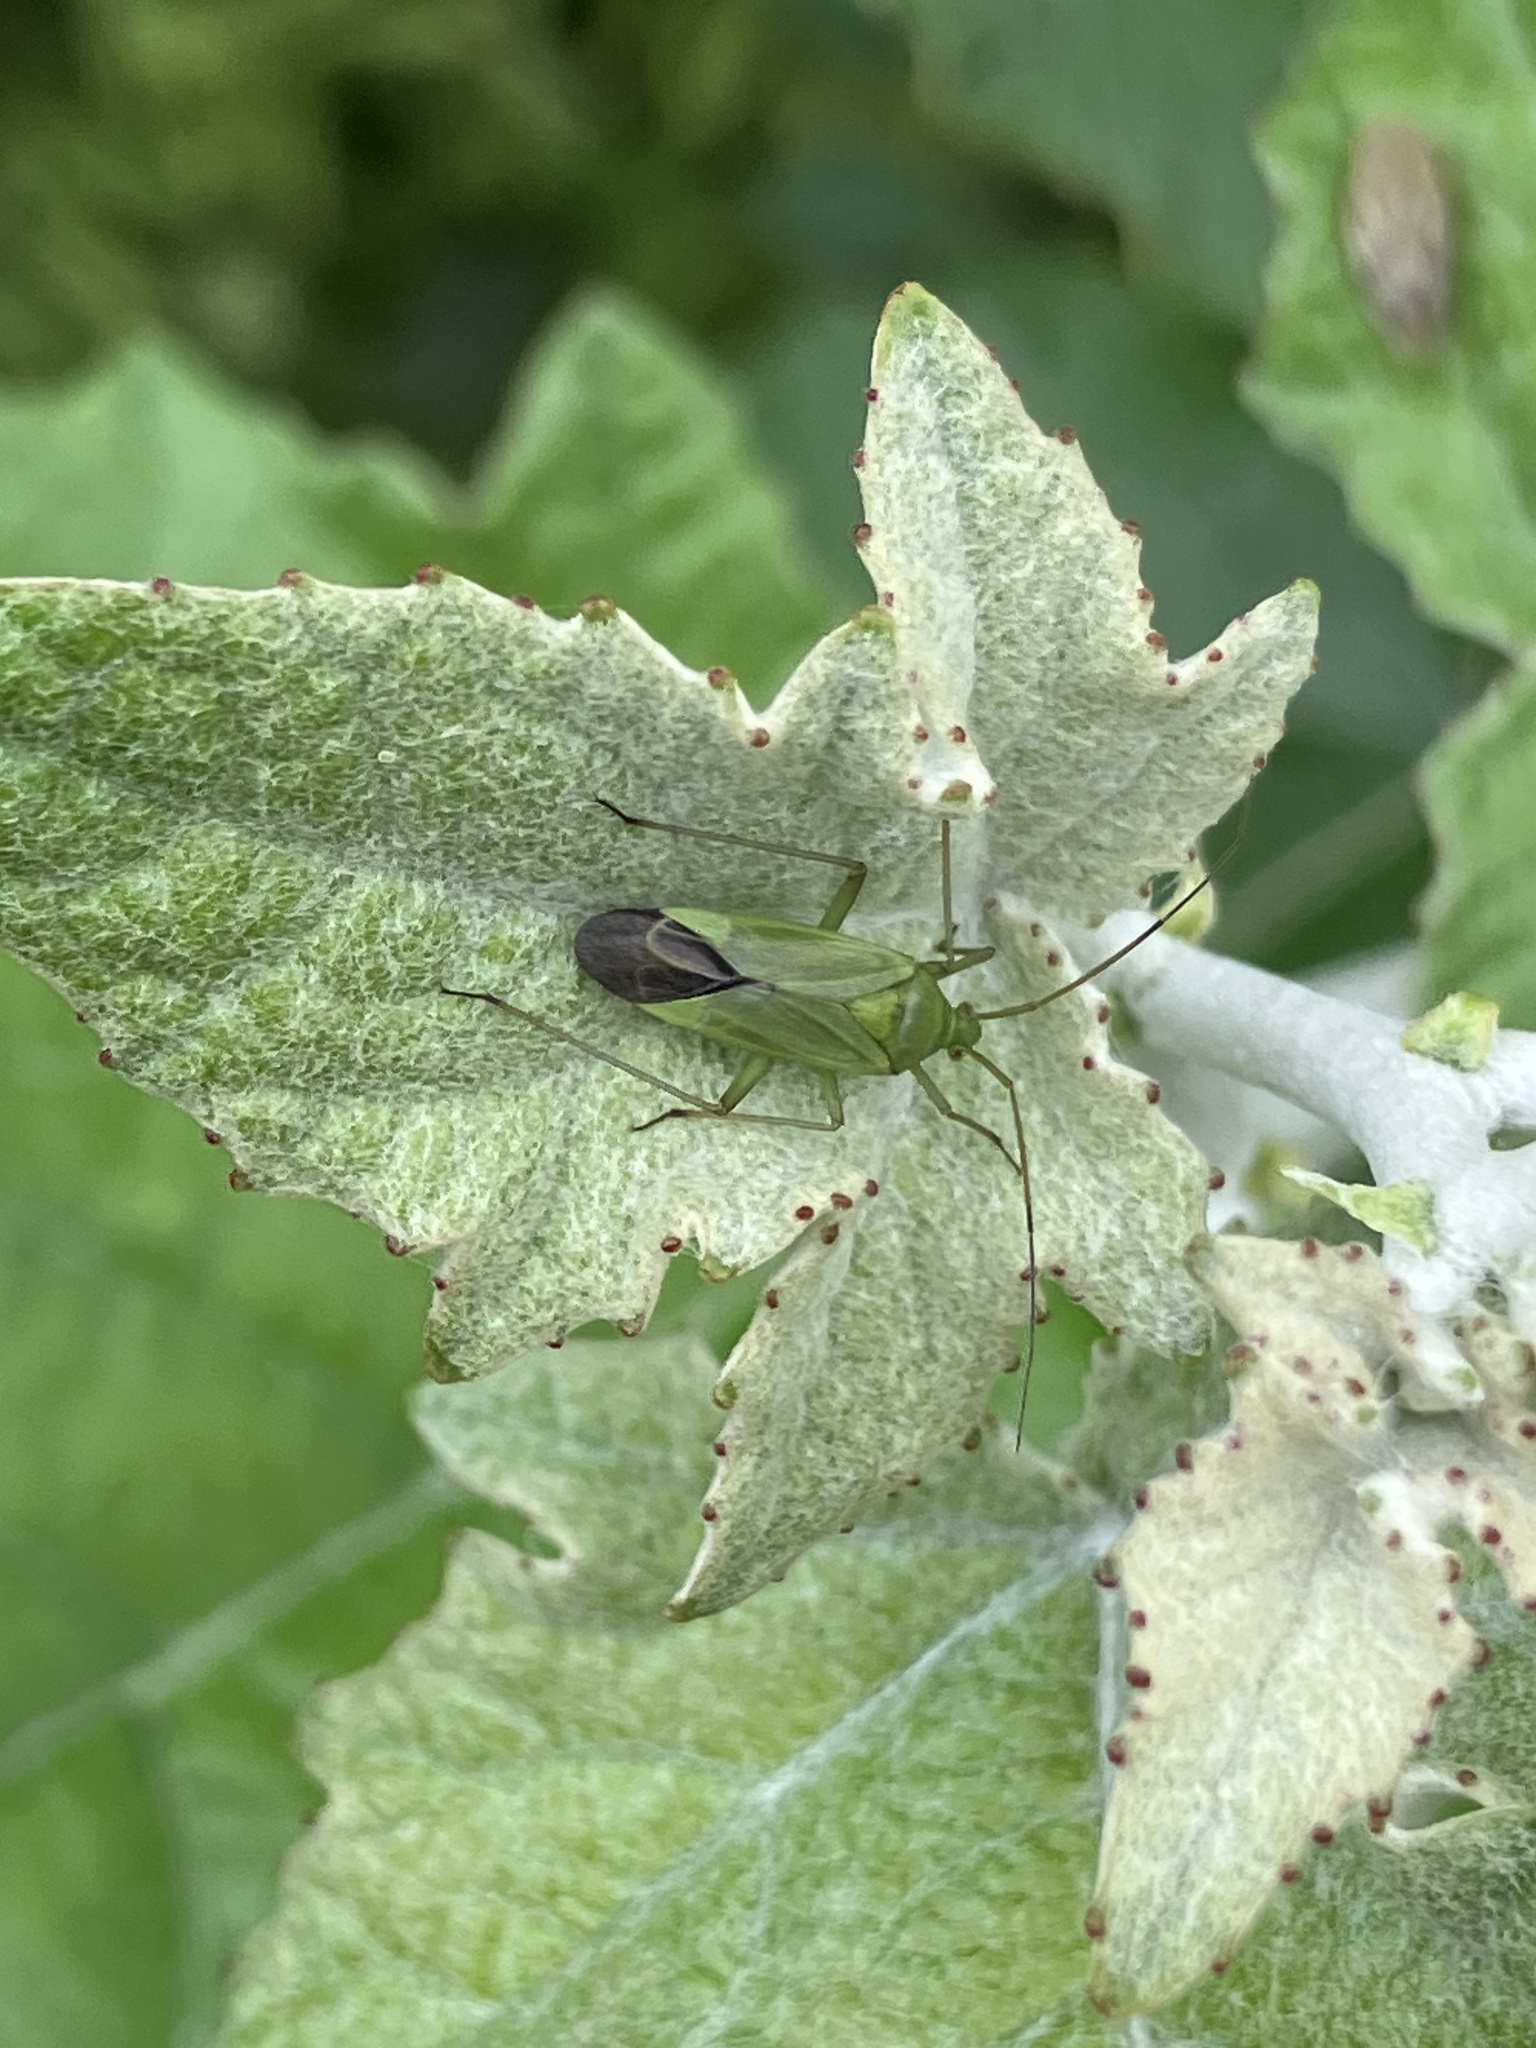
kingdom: Animalia
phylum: Arthropoda
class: Insecta
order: Hemiptera
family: Miridae
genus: Calocoris
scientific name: Calocoris affinis
